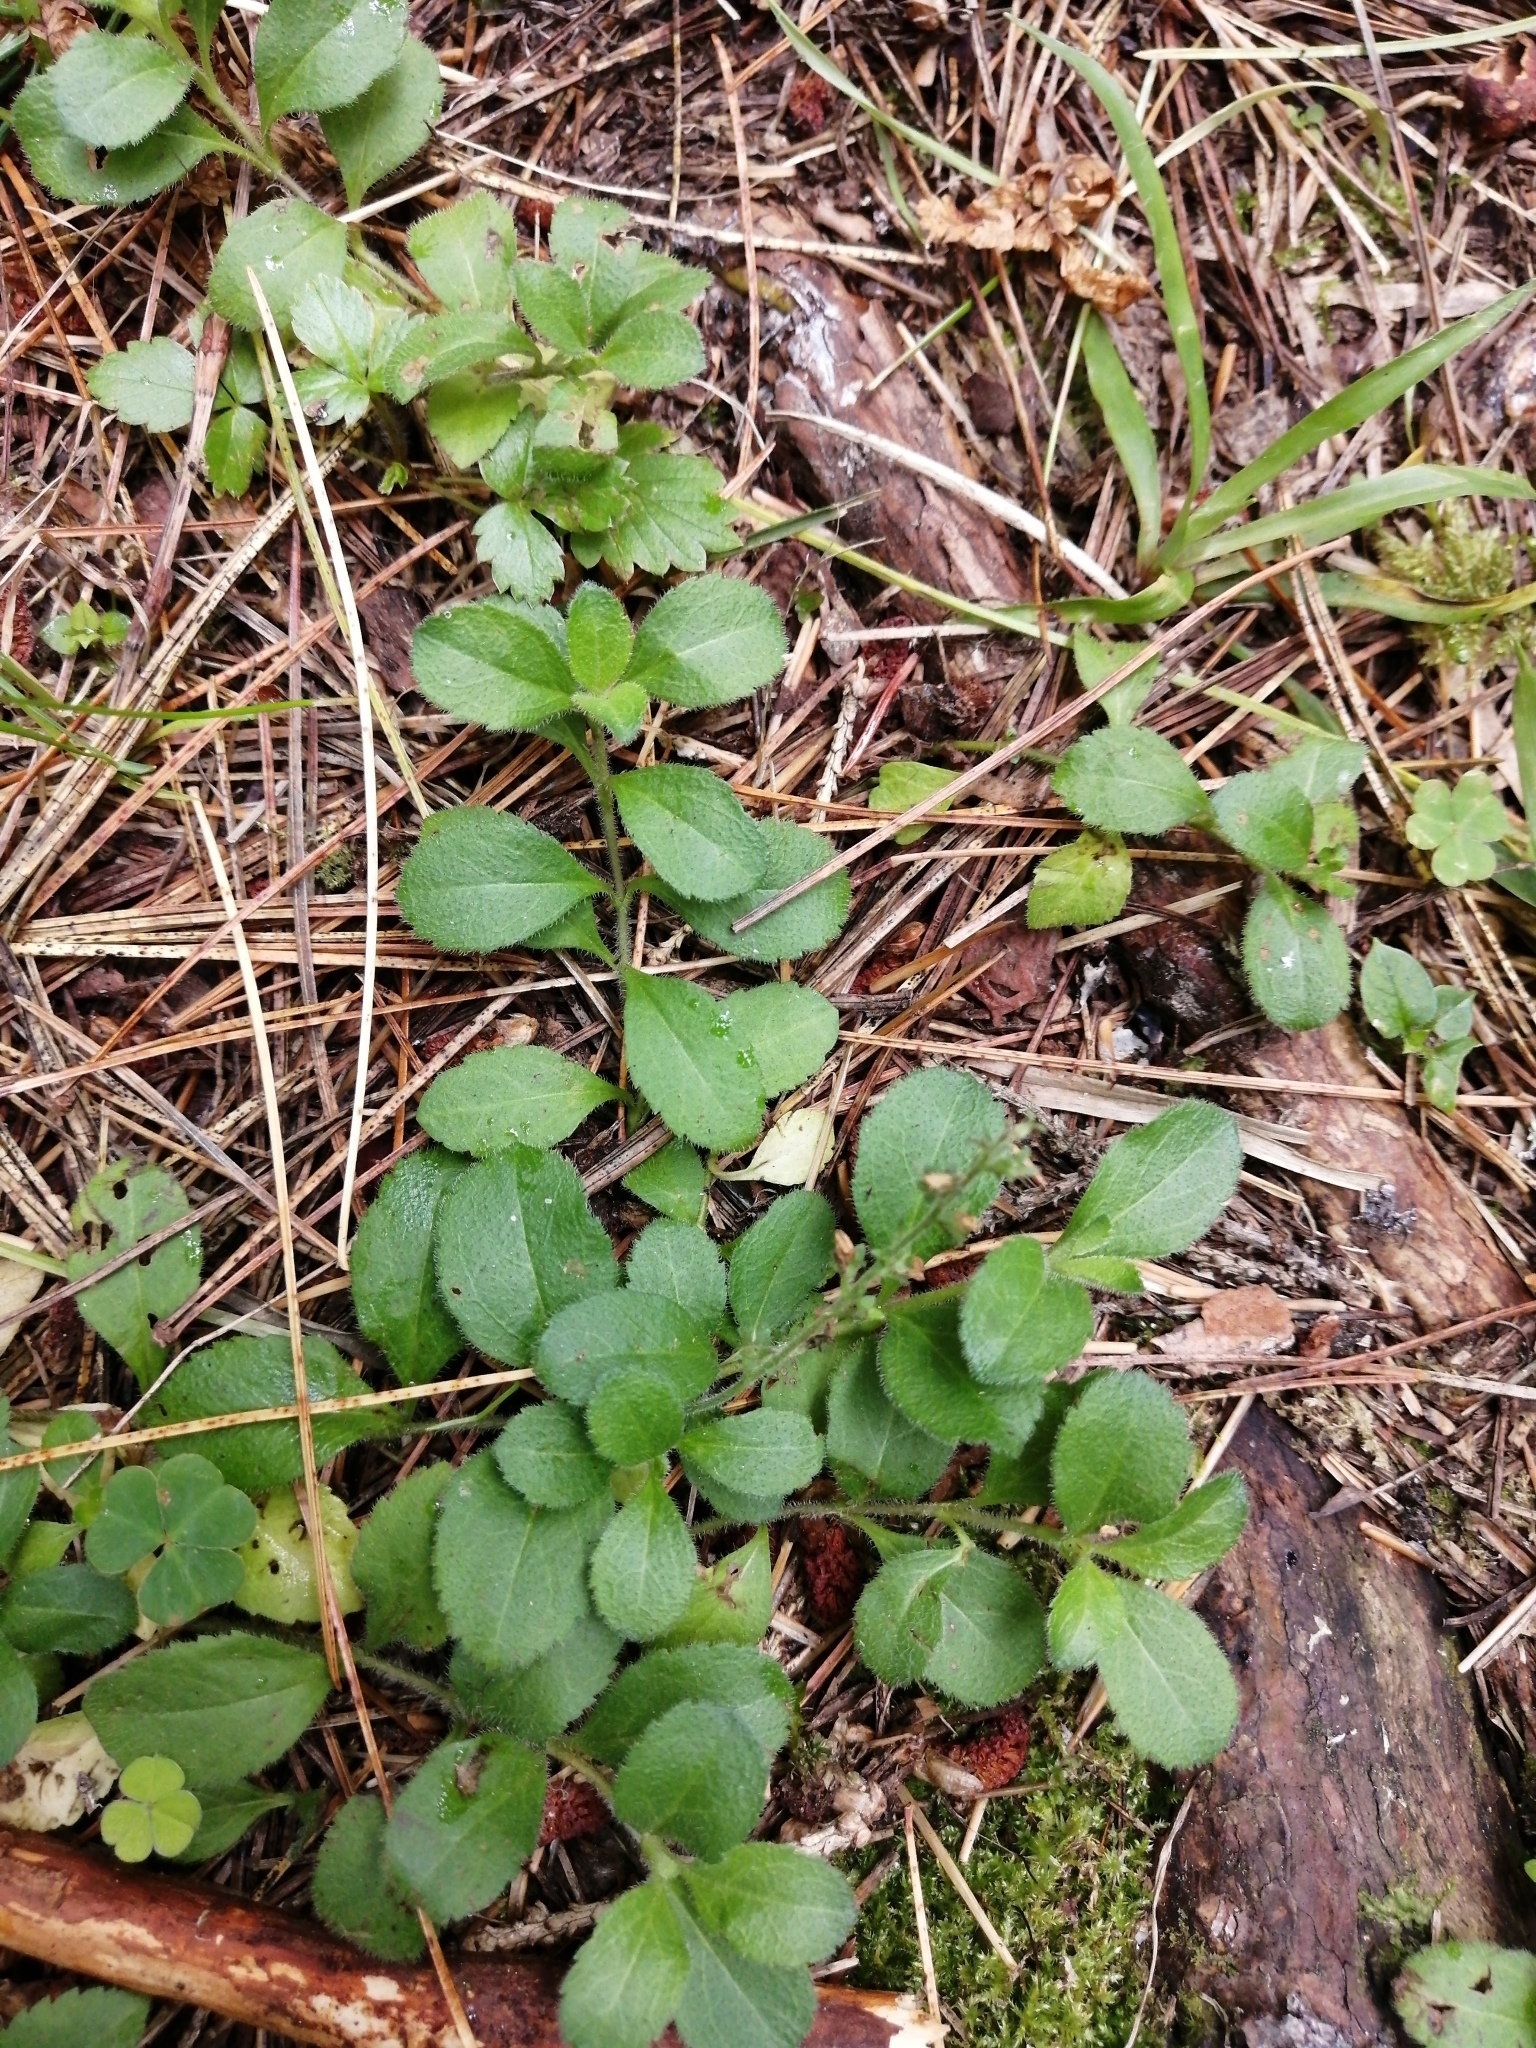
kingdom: Plantae
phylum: Tracheophyta
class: Magnoliopsida
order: Lamiales
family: Plantaginaceae
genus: Veronica
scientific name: Veronica officinalis
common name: Common speedwell
